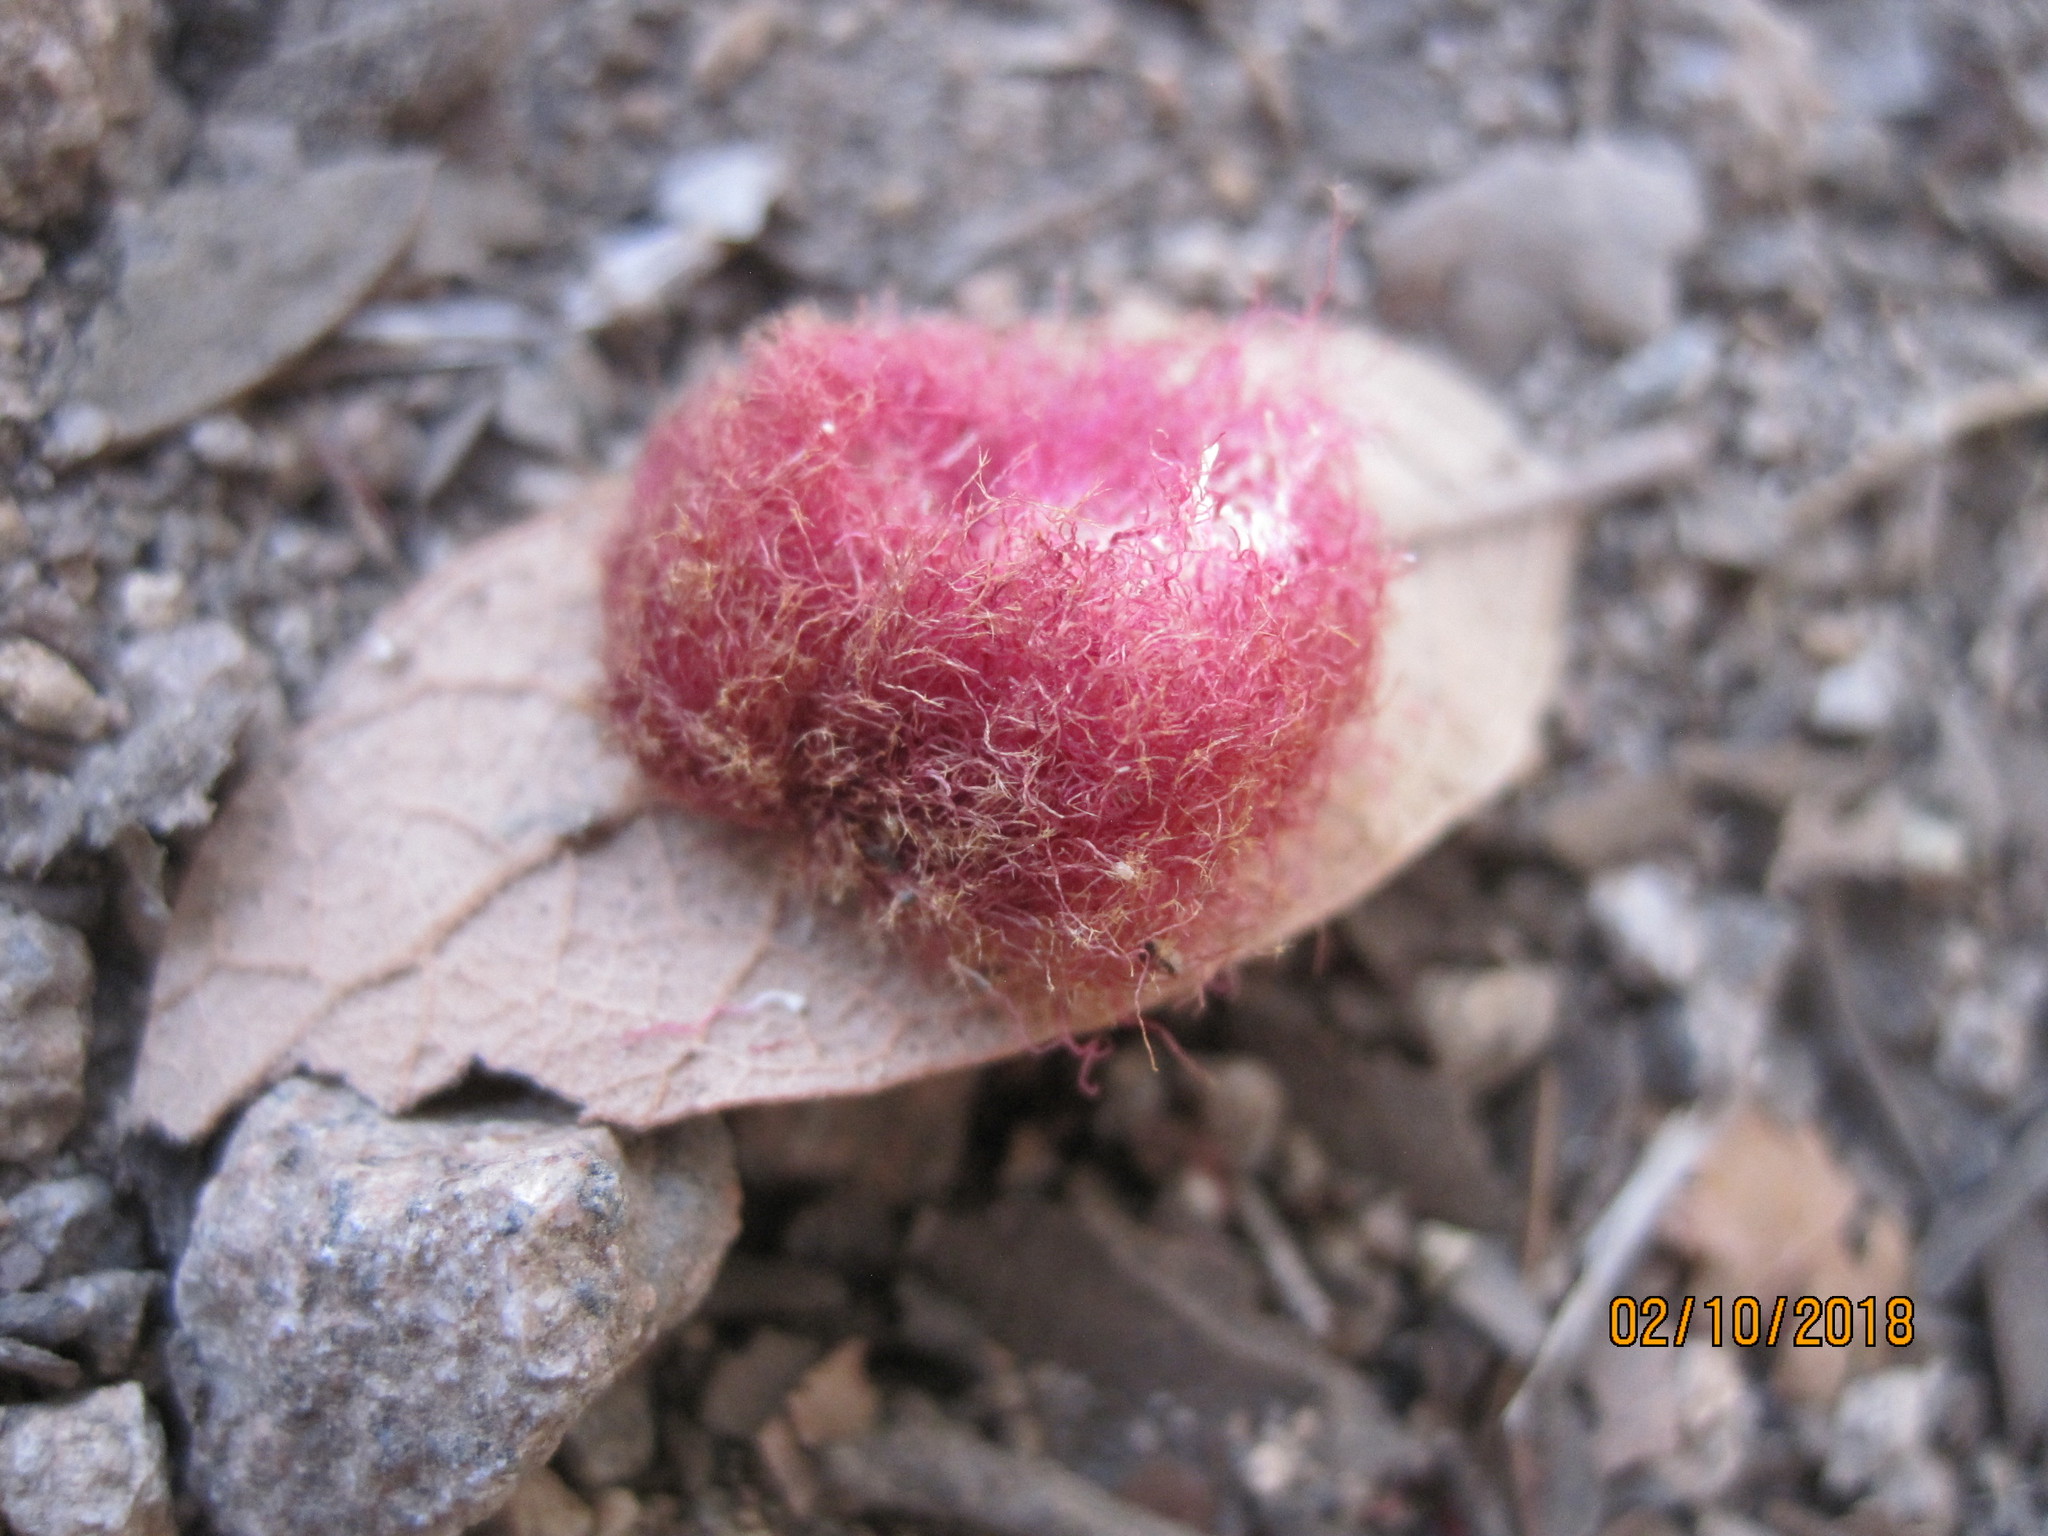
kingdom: Animalia
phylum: Arthropoda
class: Insecta
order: Hymenoptera
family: Cynipidae
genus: Cynips
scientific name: Cynips
